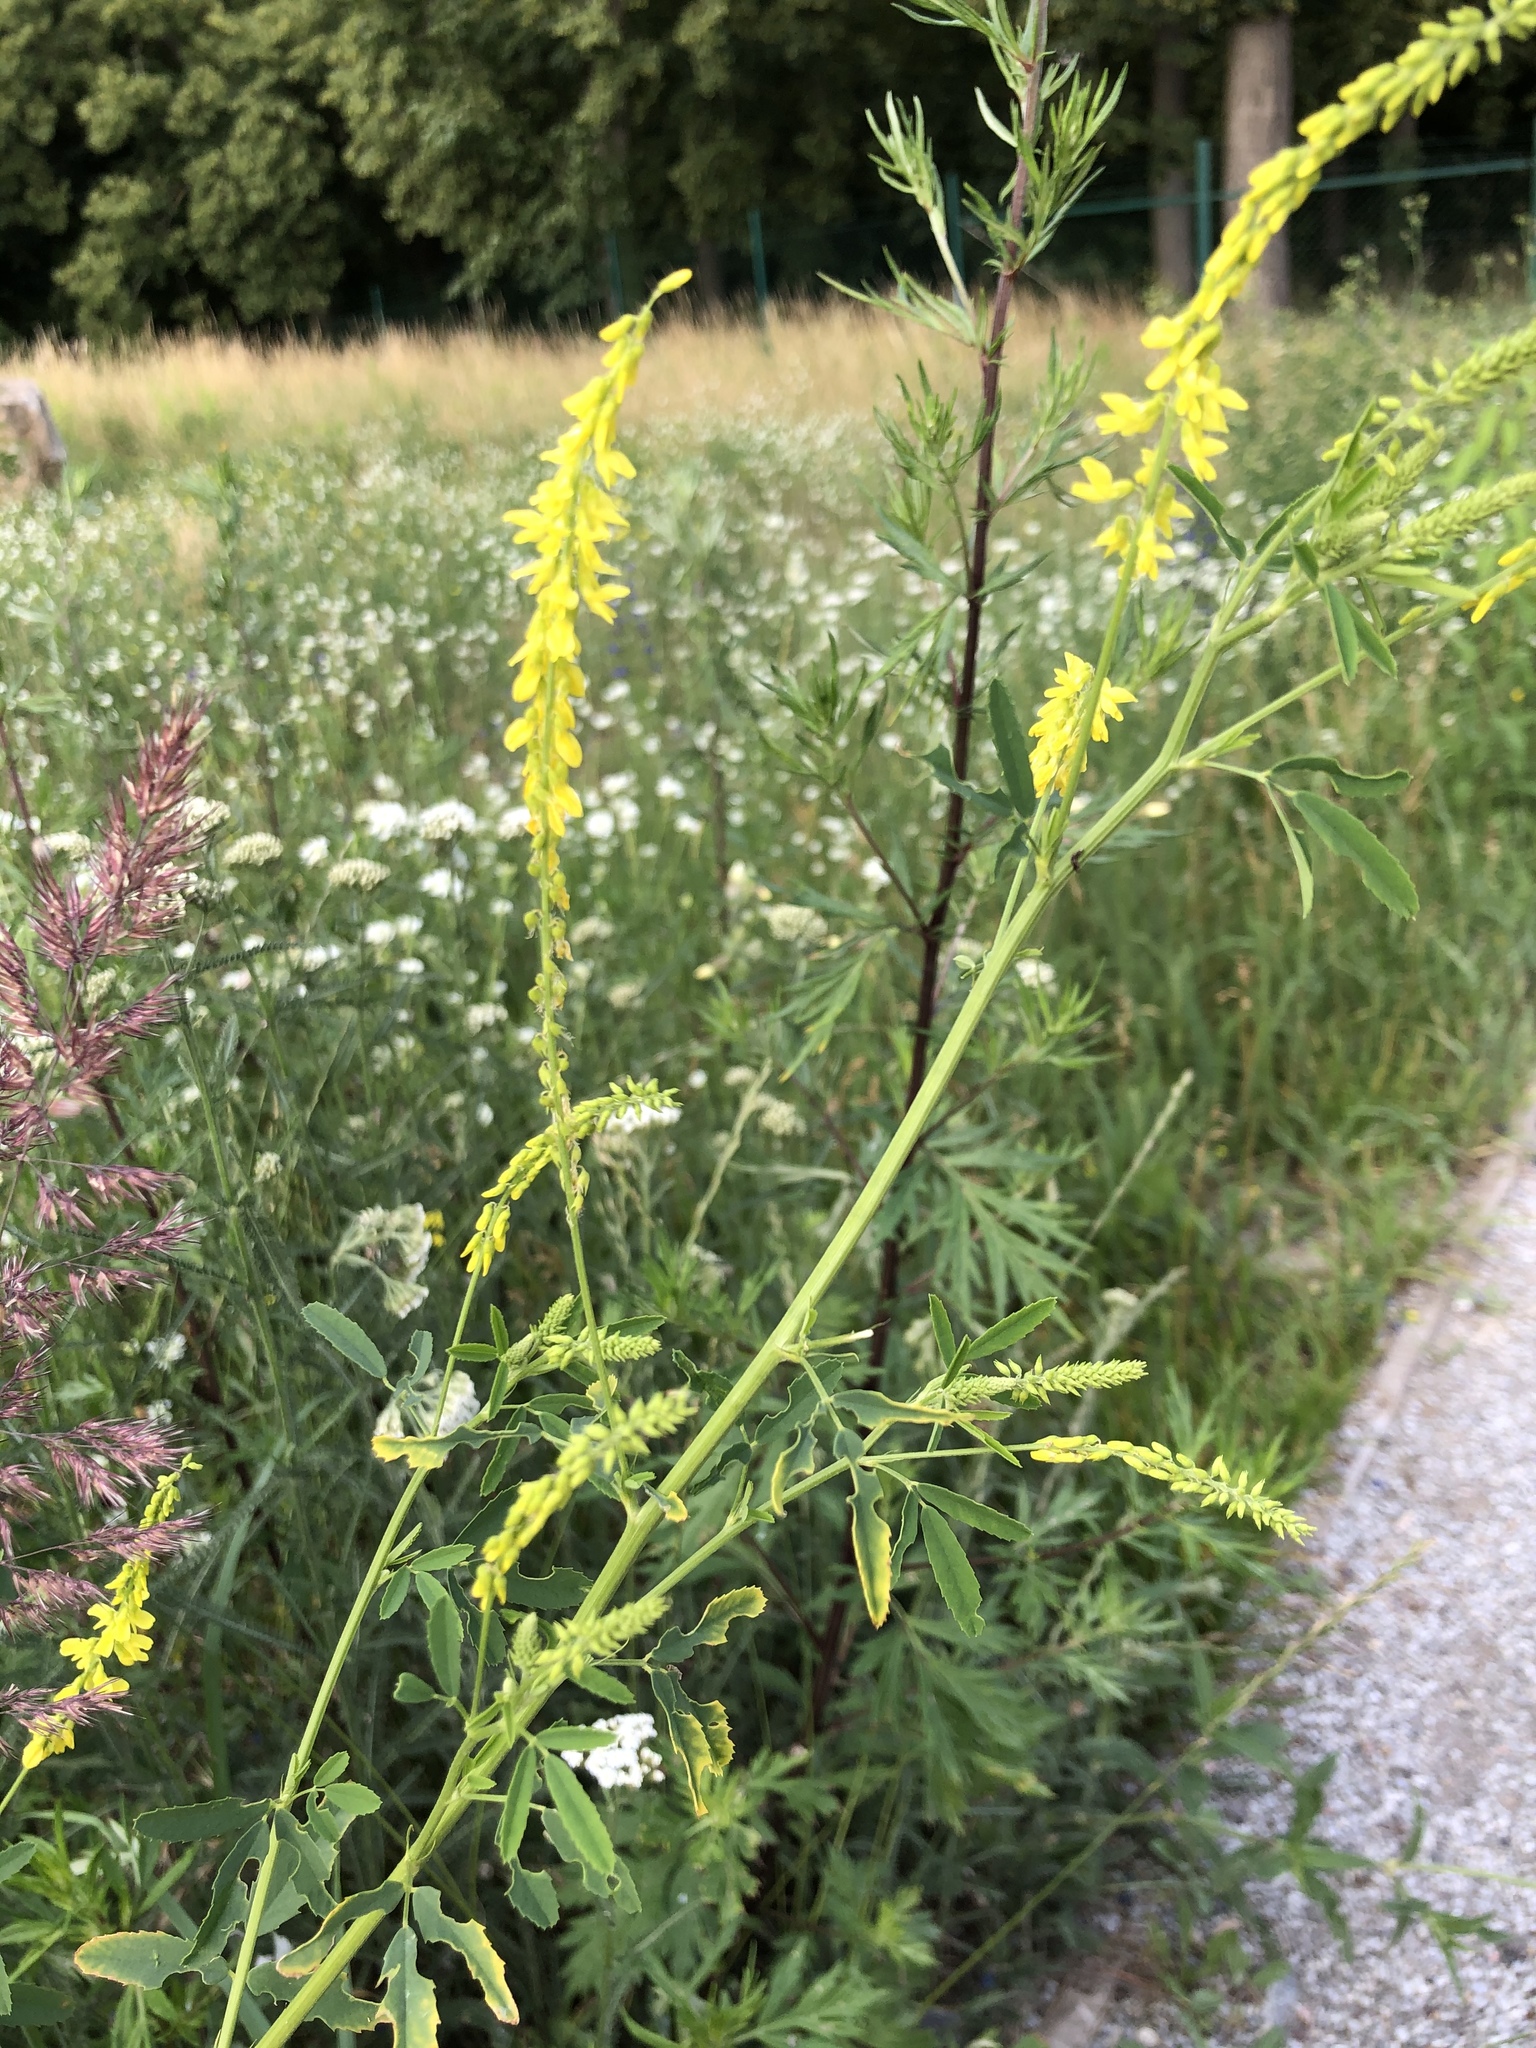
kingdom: Plantae
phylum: Tracheophyta
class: Magnoliopsida
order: Fabales
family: Fabaceae
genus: Melilotus
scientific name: Melilotus officinalis
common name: Sweetclover
